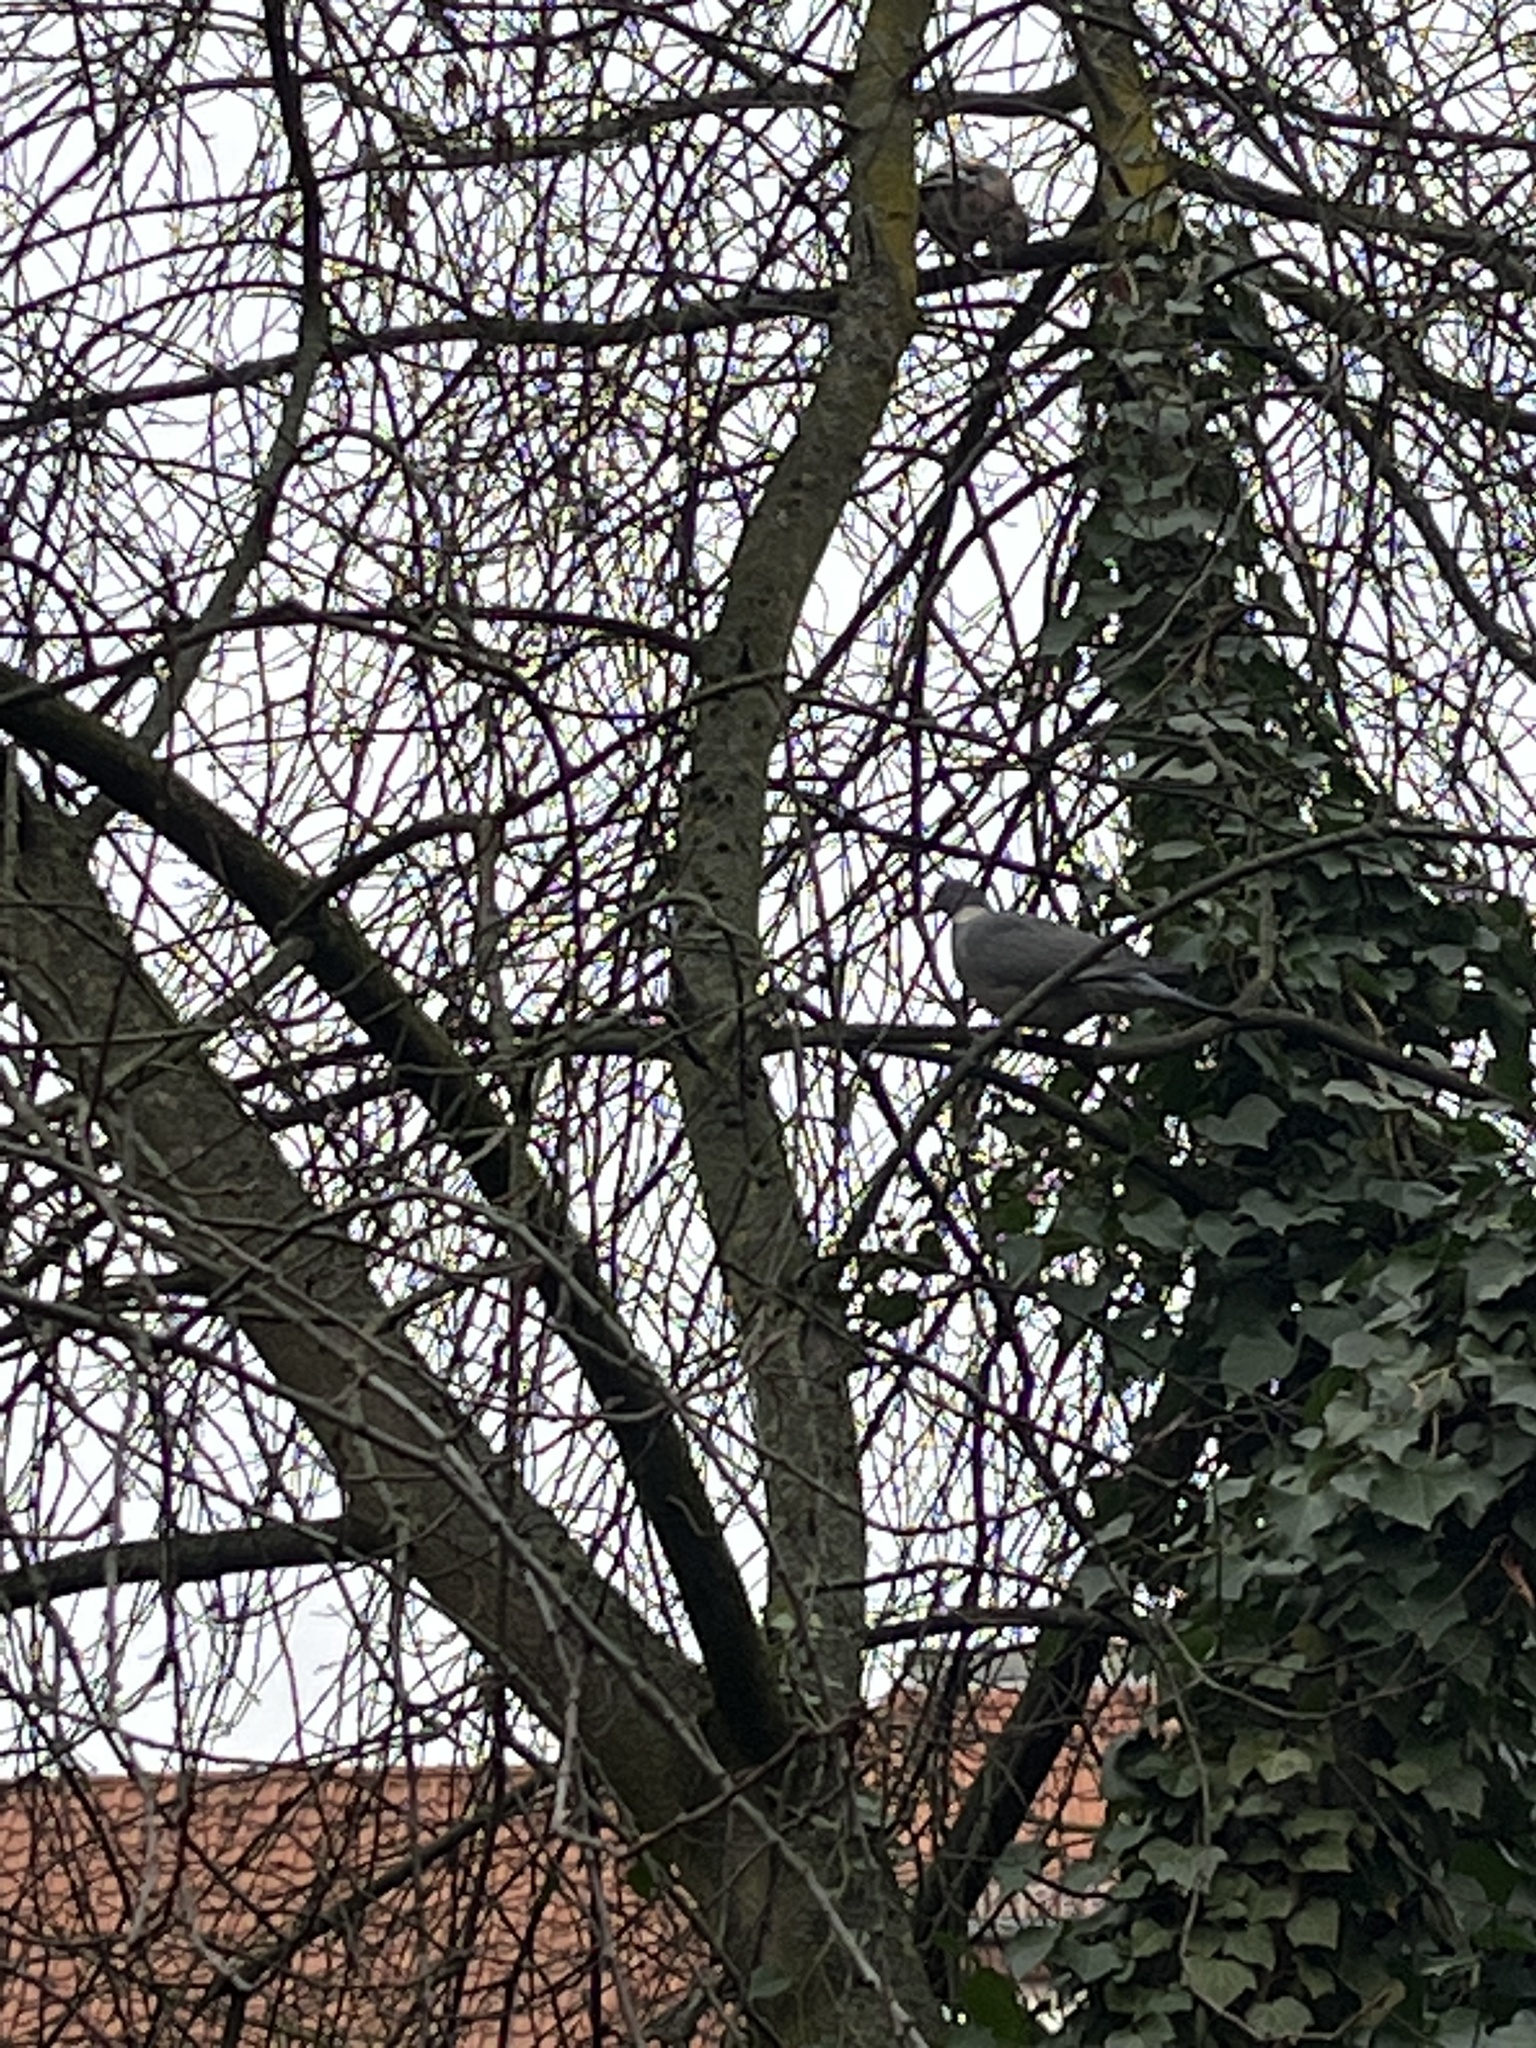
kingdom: Animalia
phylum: Chordata
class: Aves
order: Columbiformes
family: Columbidae
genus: Columba
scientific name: Columba palumbus
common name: Common wood pigeon
